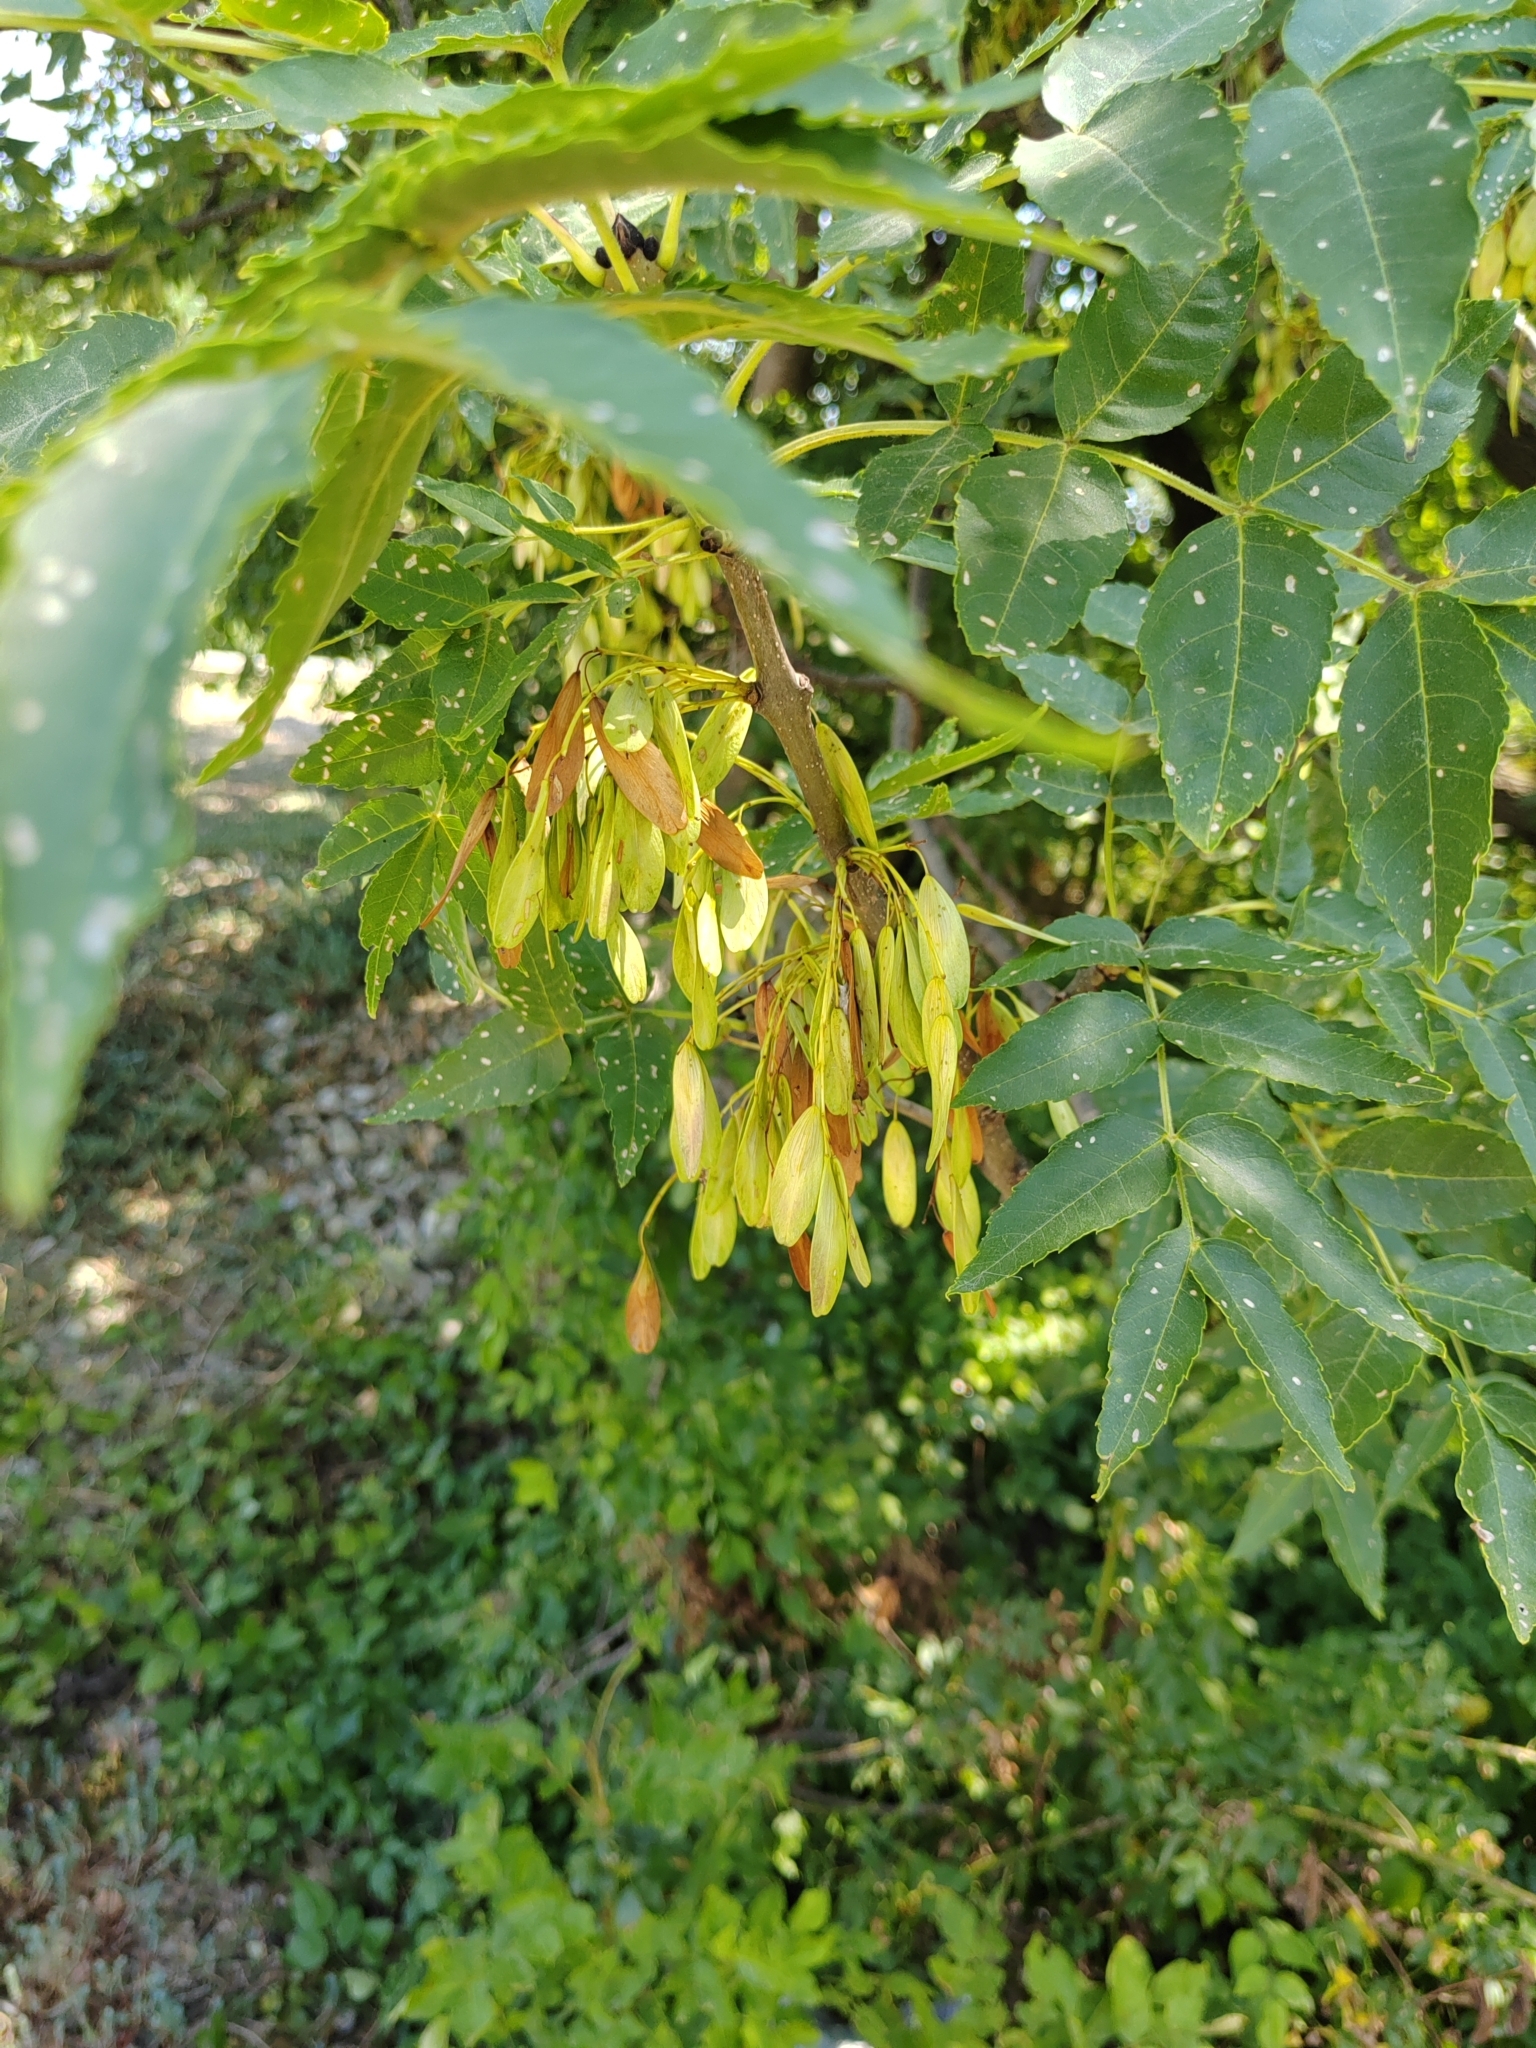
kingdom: Plantae
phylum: Tracheophyta
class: Magnoliopsida
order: Lamiales
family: Oleaceae
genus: Fraxinus
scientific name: Fraxinus excelsior
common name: European ash
